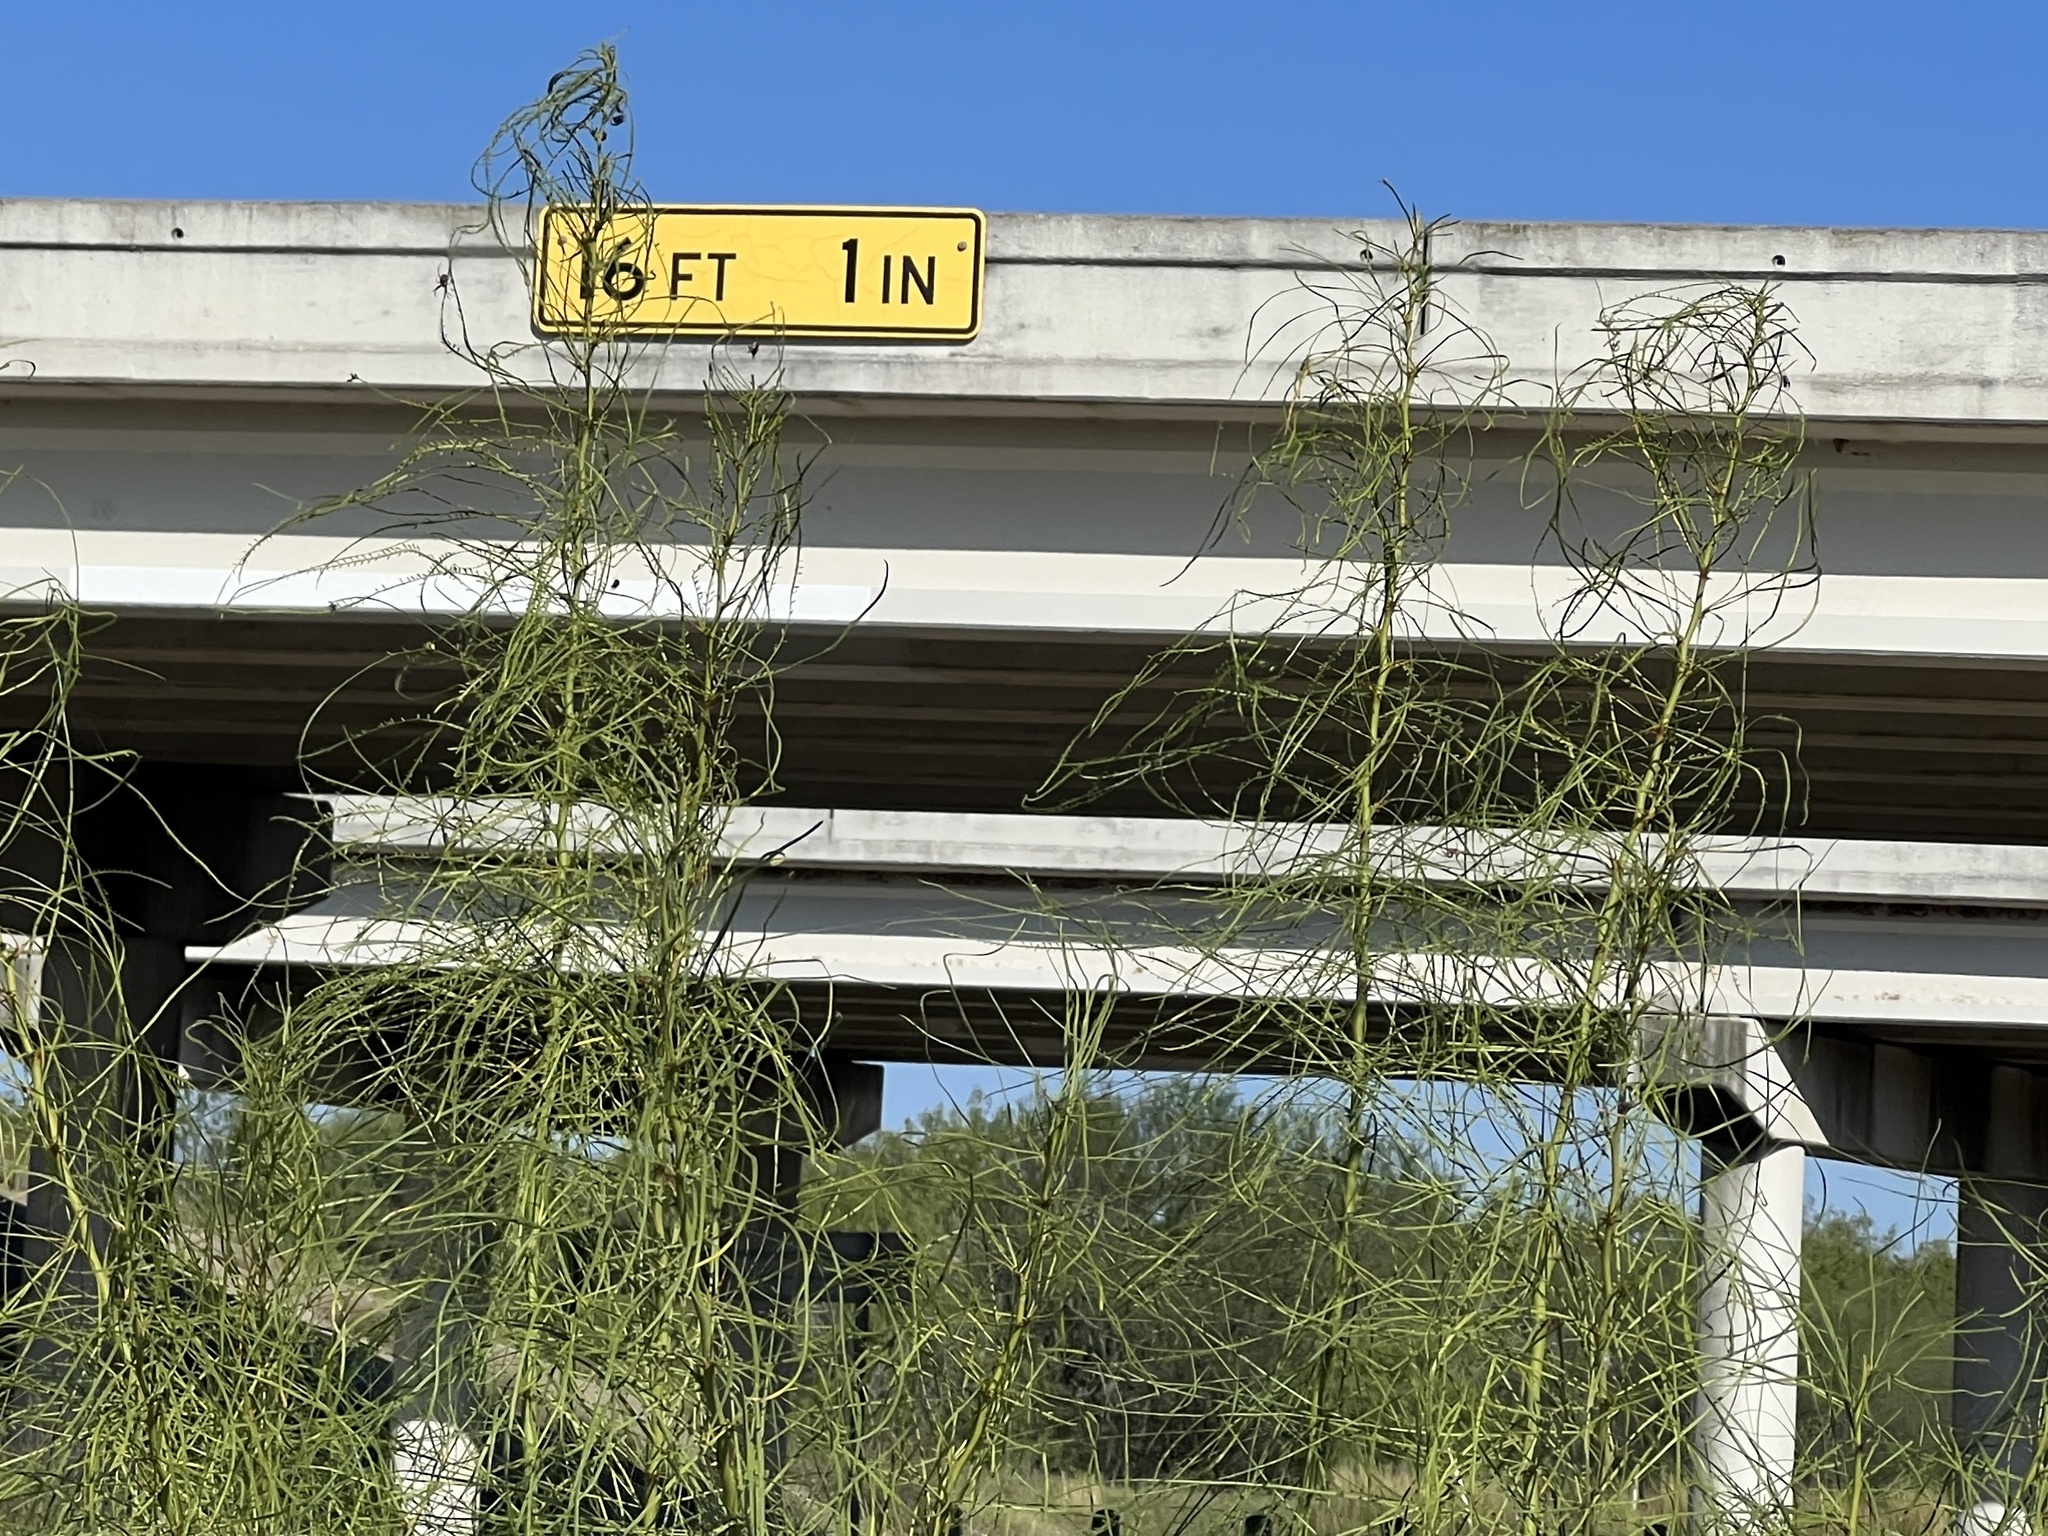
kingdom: Plantae
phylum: Tracheophyta
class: Magnoliopsida
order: Fabales
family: Fabaceae
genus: Parkinsonia
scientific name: Parkinsonia aculeata
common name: Jerusalem thorn
